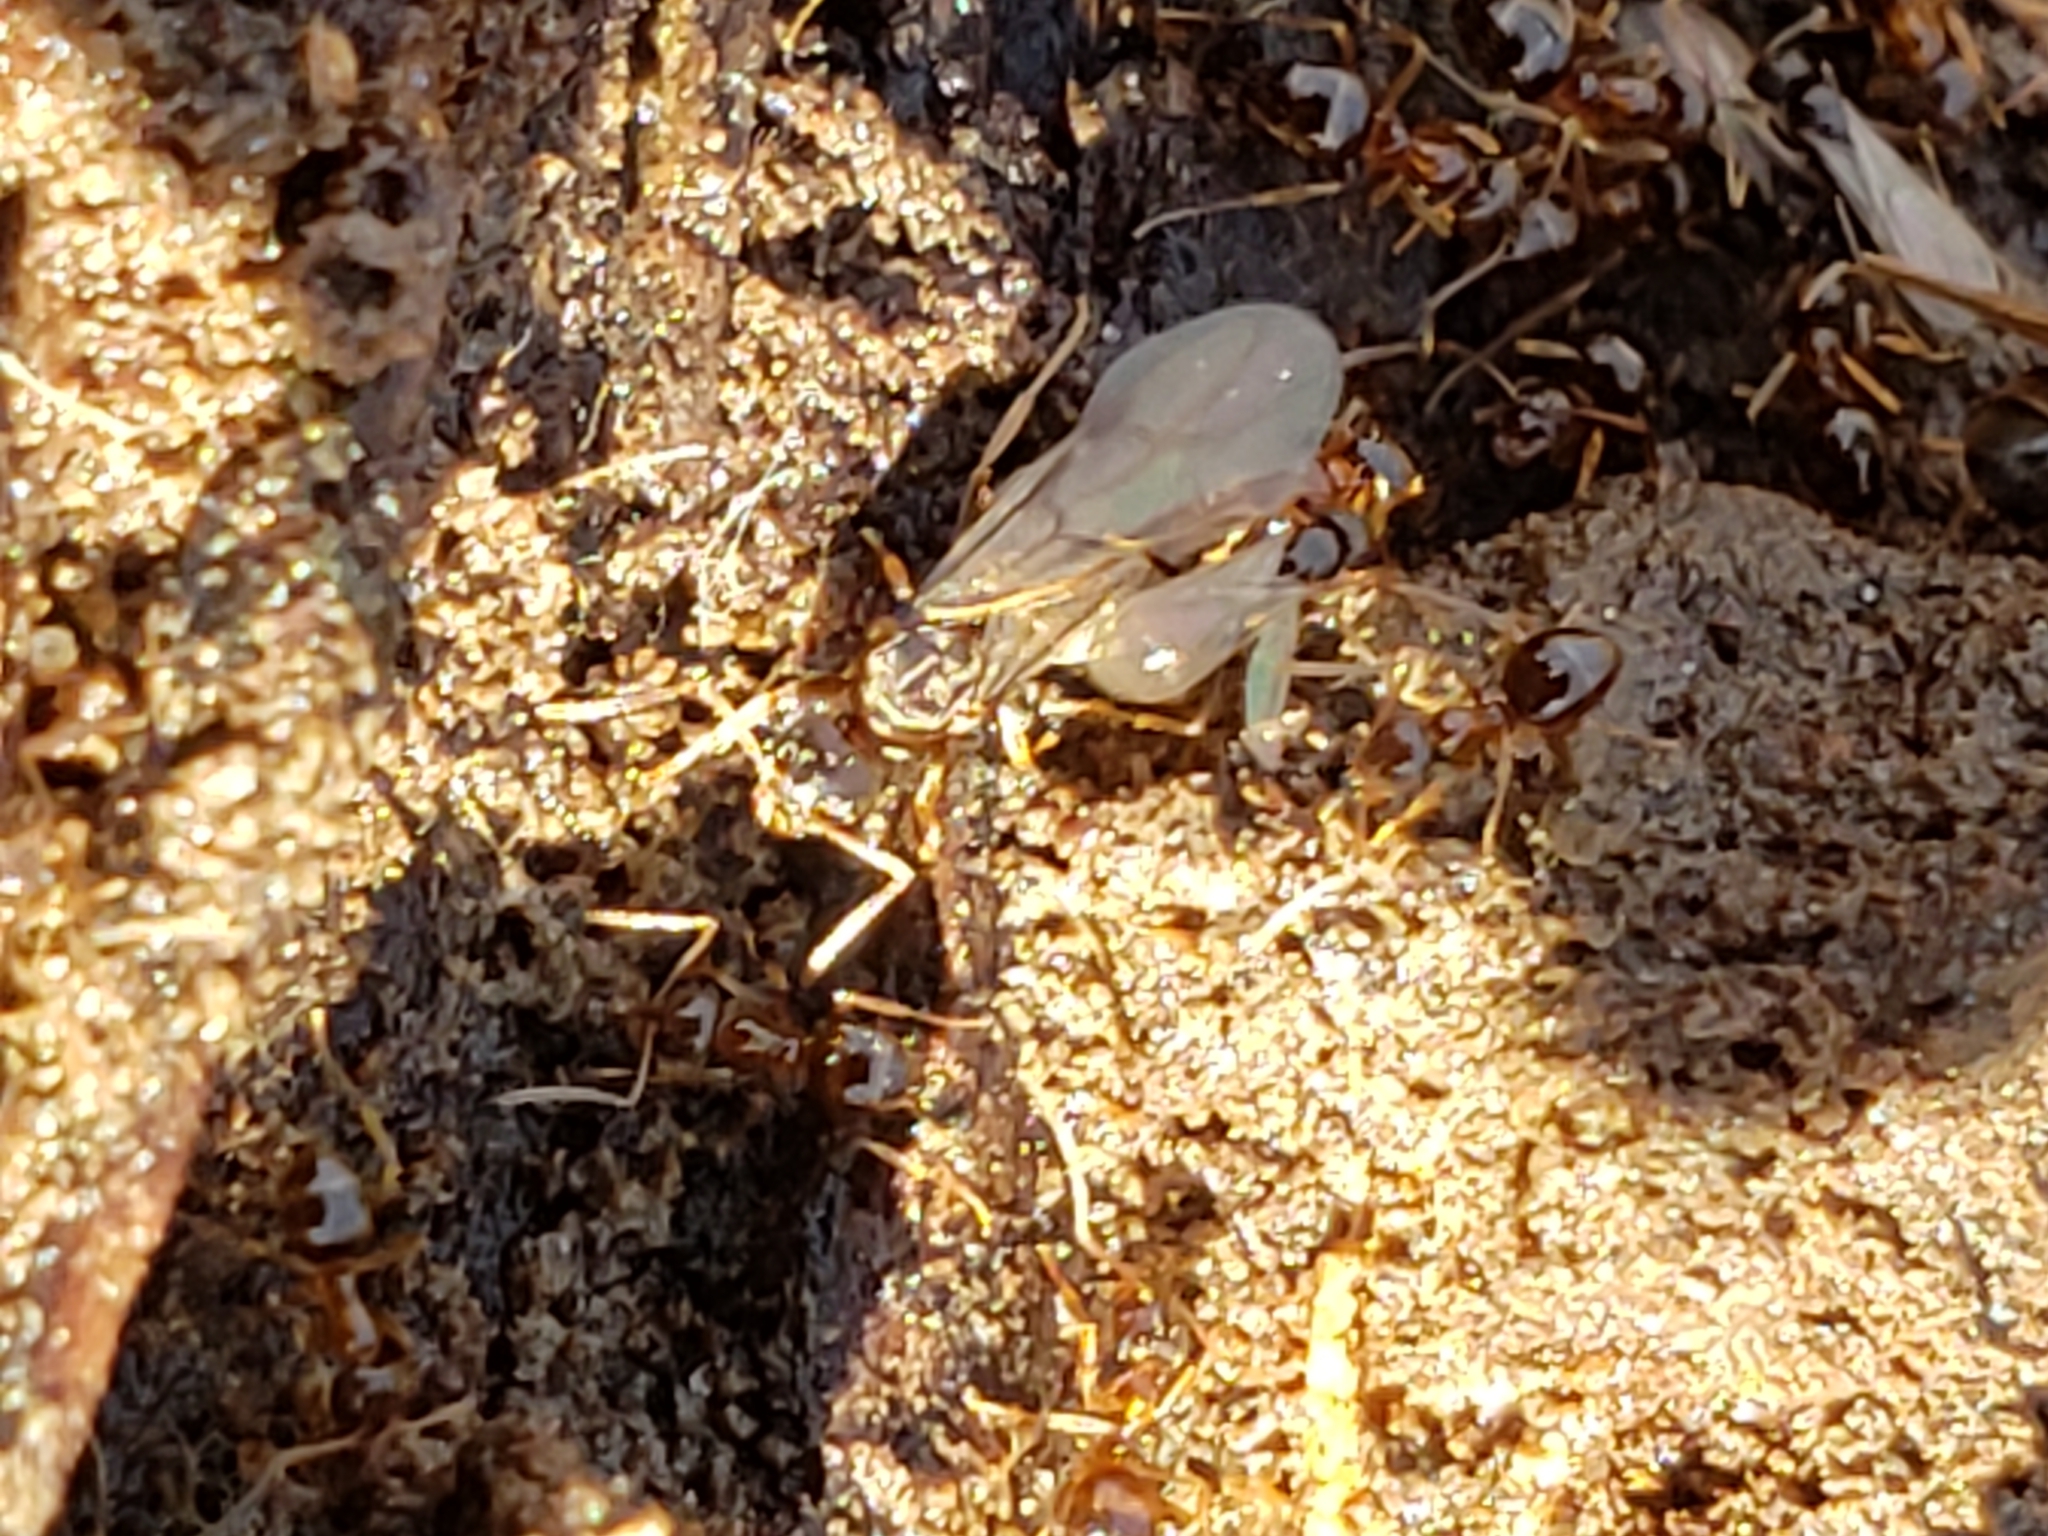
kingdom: Animalia
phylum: Arthropoda
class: Insecta
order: Hymenoptera
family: Formicidae
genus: Prenolepis
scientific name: Prenolepis imparis
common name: Small honey ant
